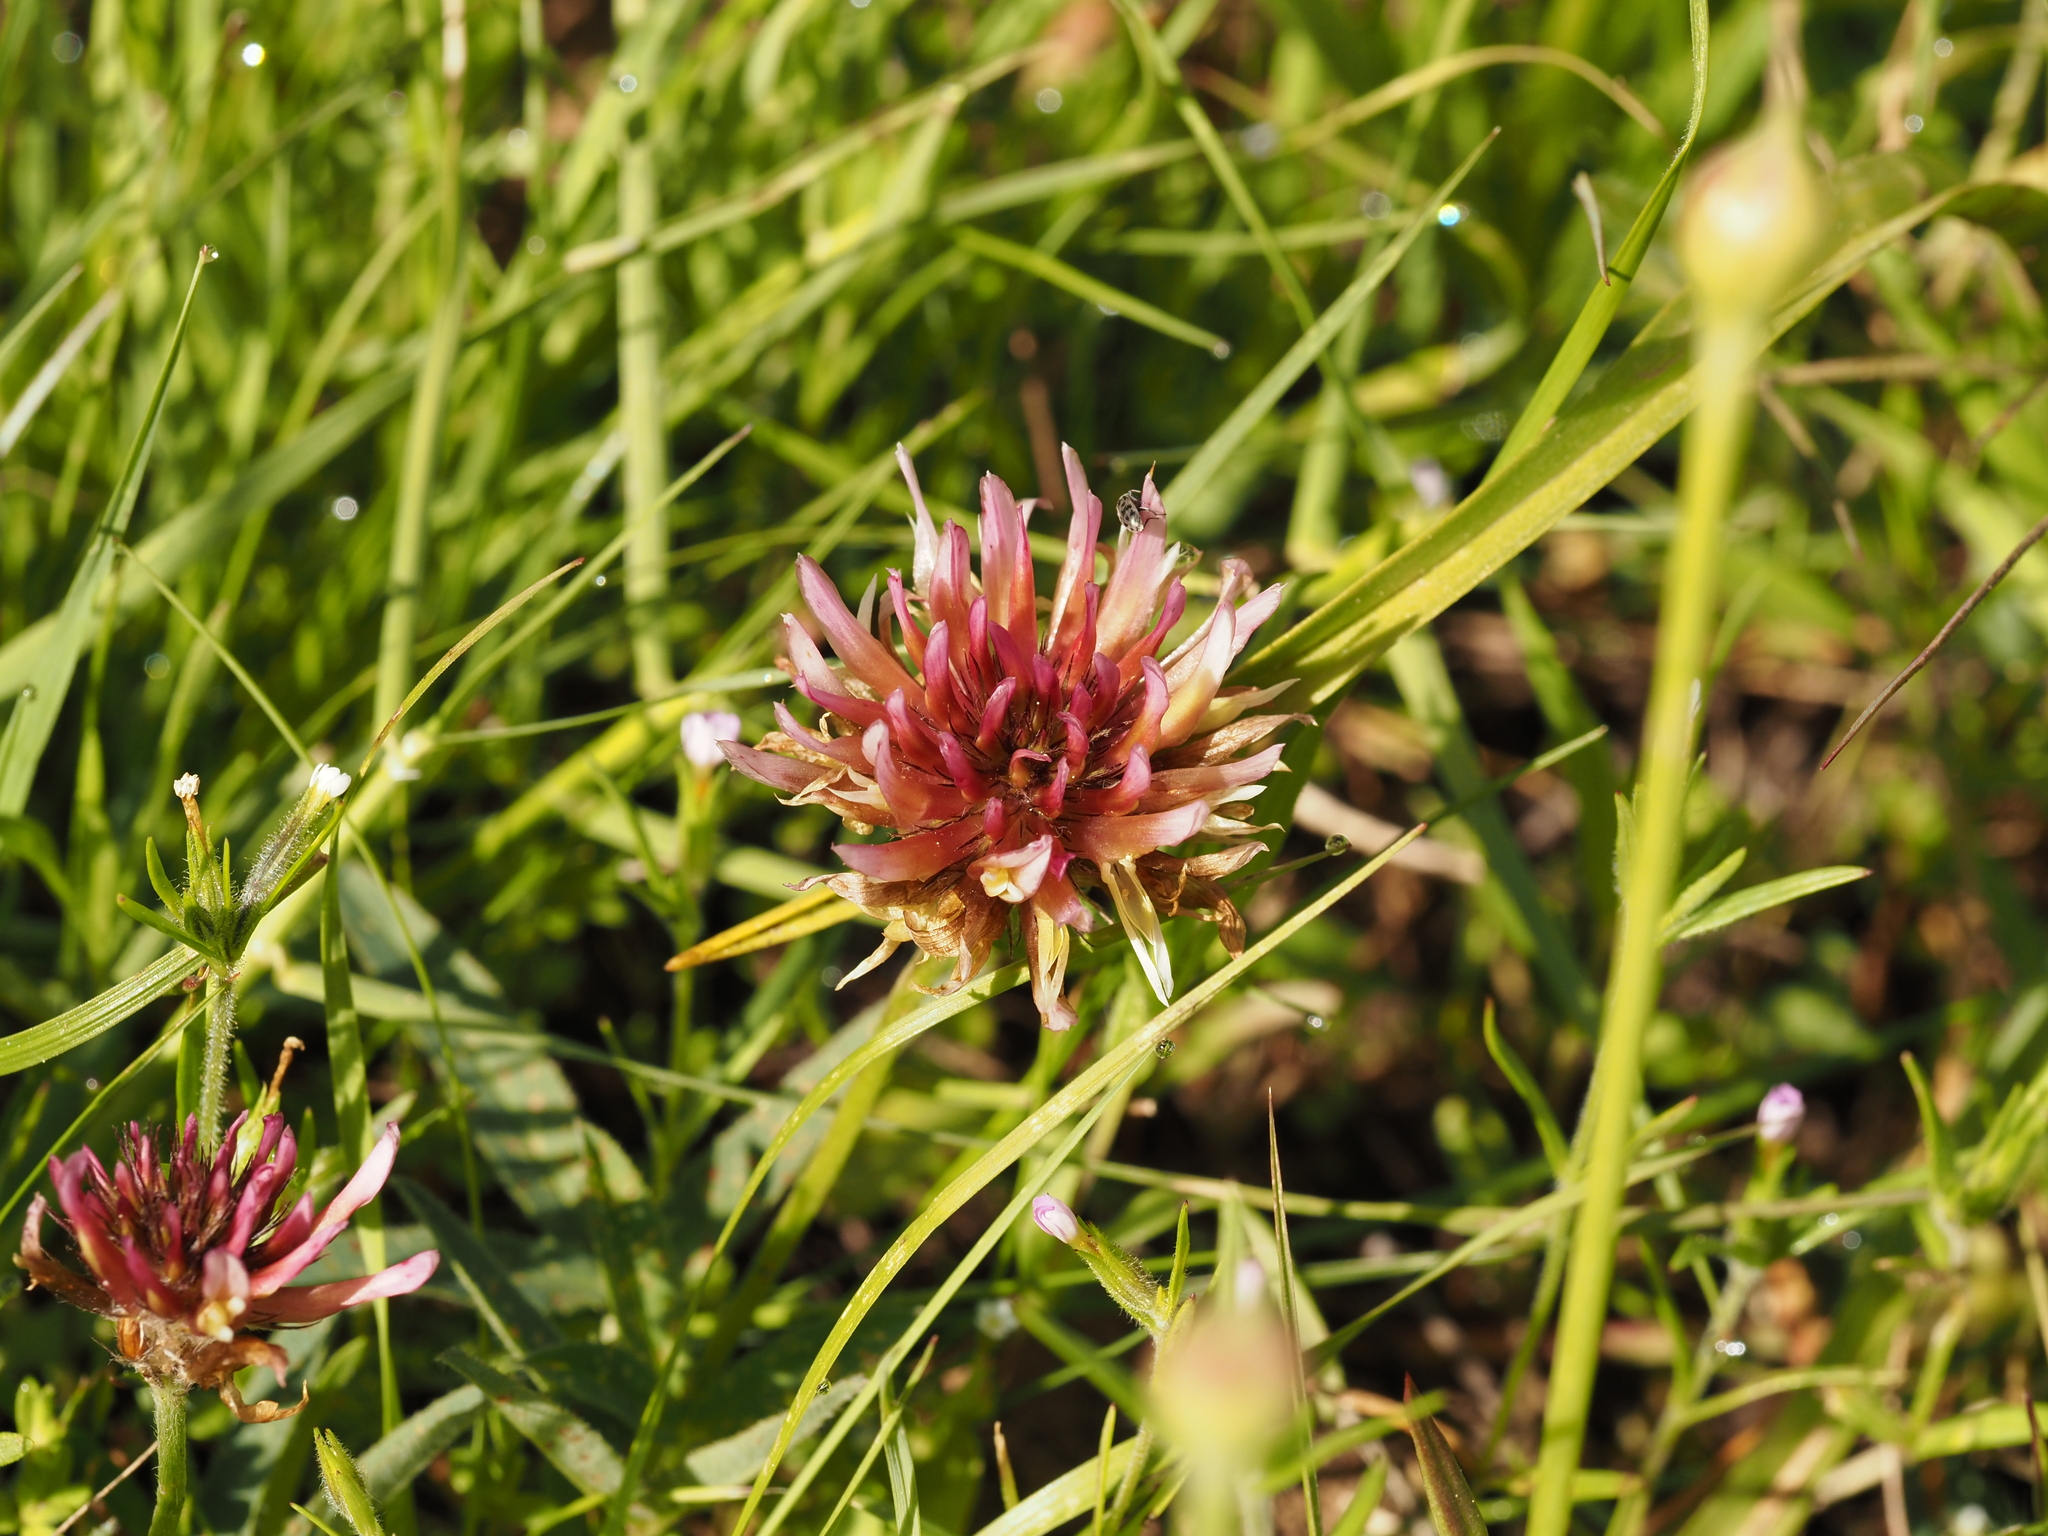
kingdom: Plantae
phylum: Tracheophyta
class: Magnoliopsida
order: Fabales
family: Fabaceae
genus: Trifolium
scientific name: Trifolium longipes
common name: Long-stalk clover
